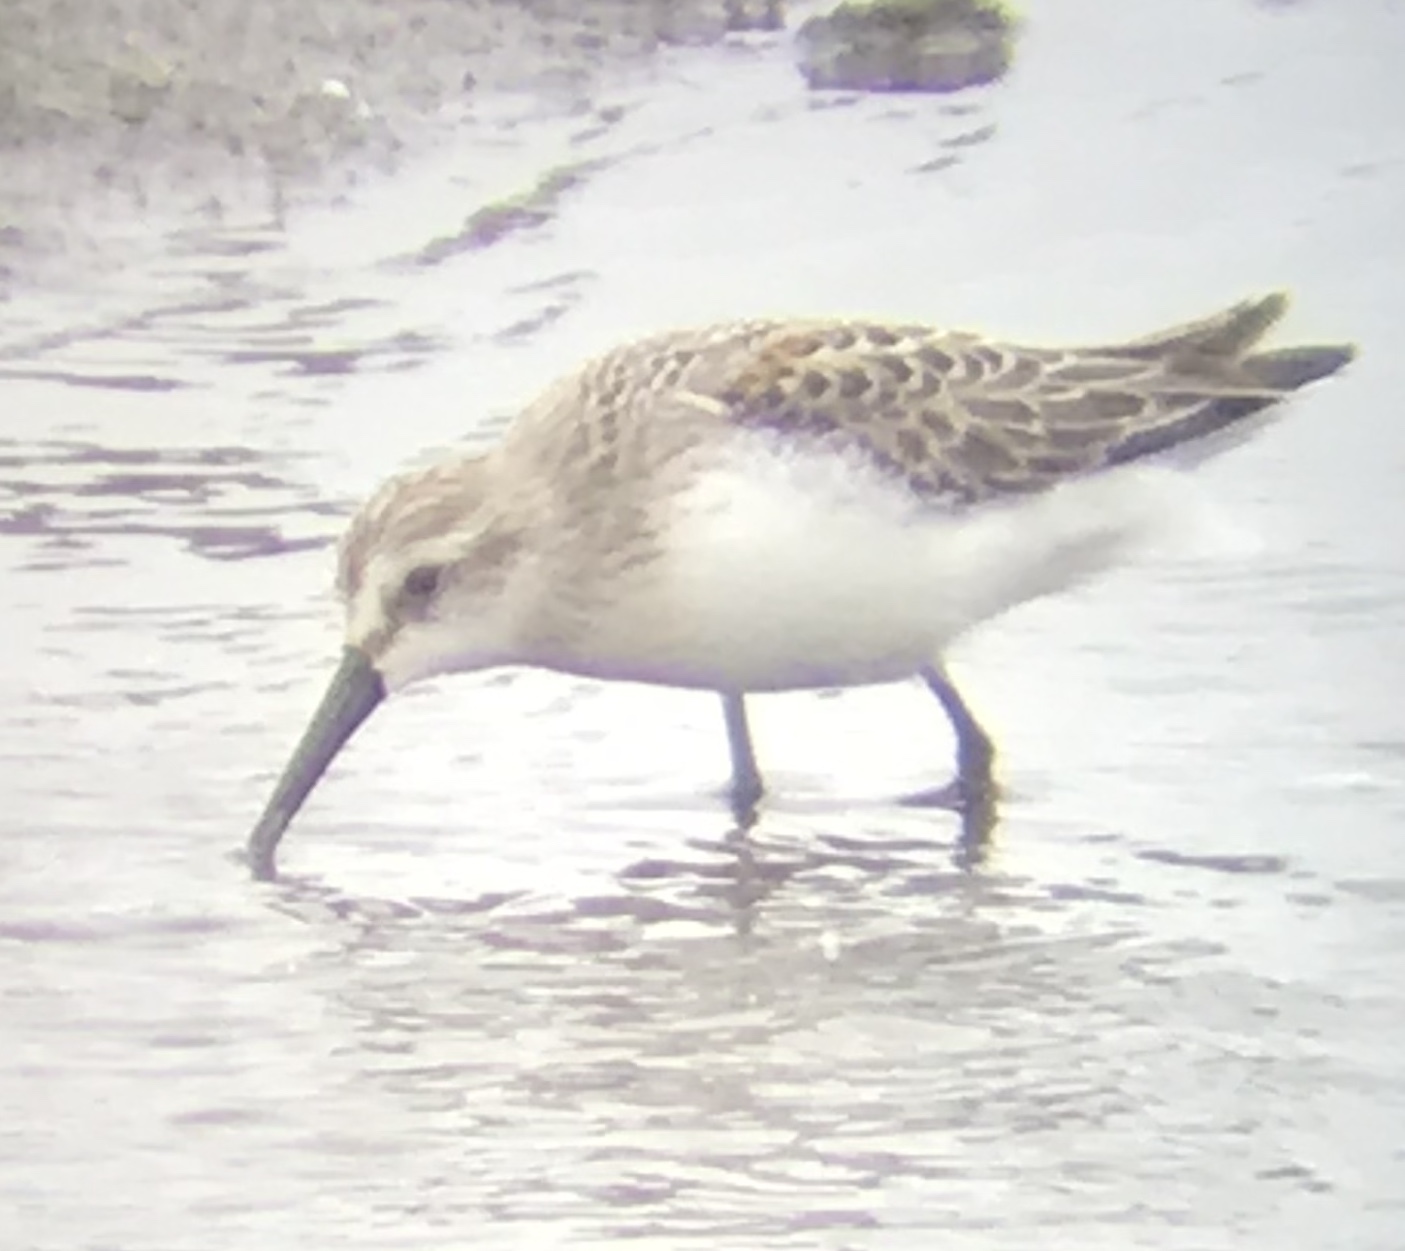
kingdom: Animalia
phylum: Chordata
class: Aves
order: Charadriiformes
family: Scolopacidae
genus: Calidris
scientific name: Calidris mauri
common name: Western sandpiper
